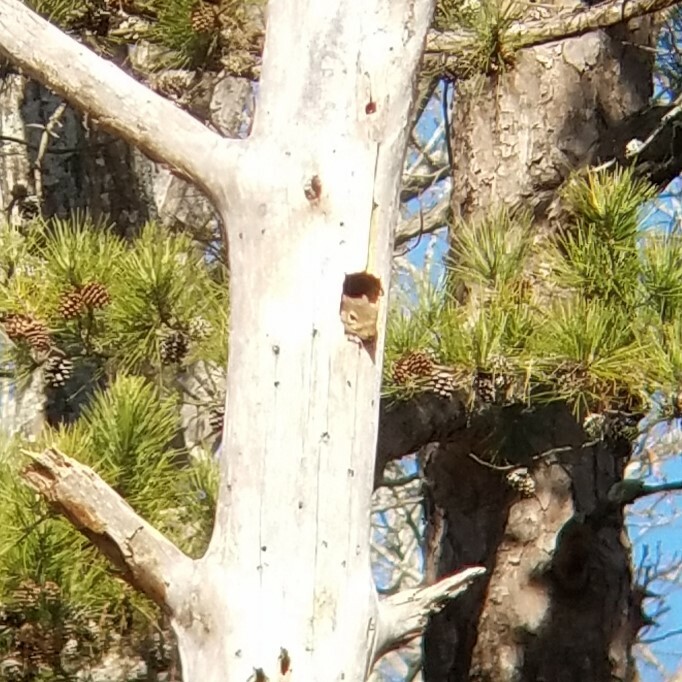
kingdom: Animalia
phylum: Chordata
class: Mammalia
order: Rodentia
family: Sciuridae
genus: Sciurus
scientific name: Sciurus carolinensis
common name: Eastern gray squirrel
